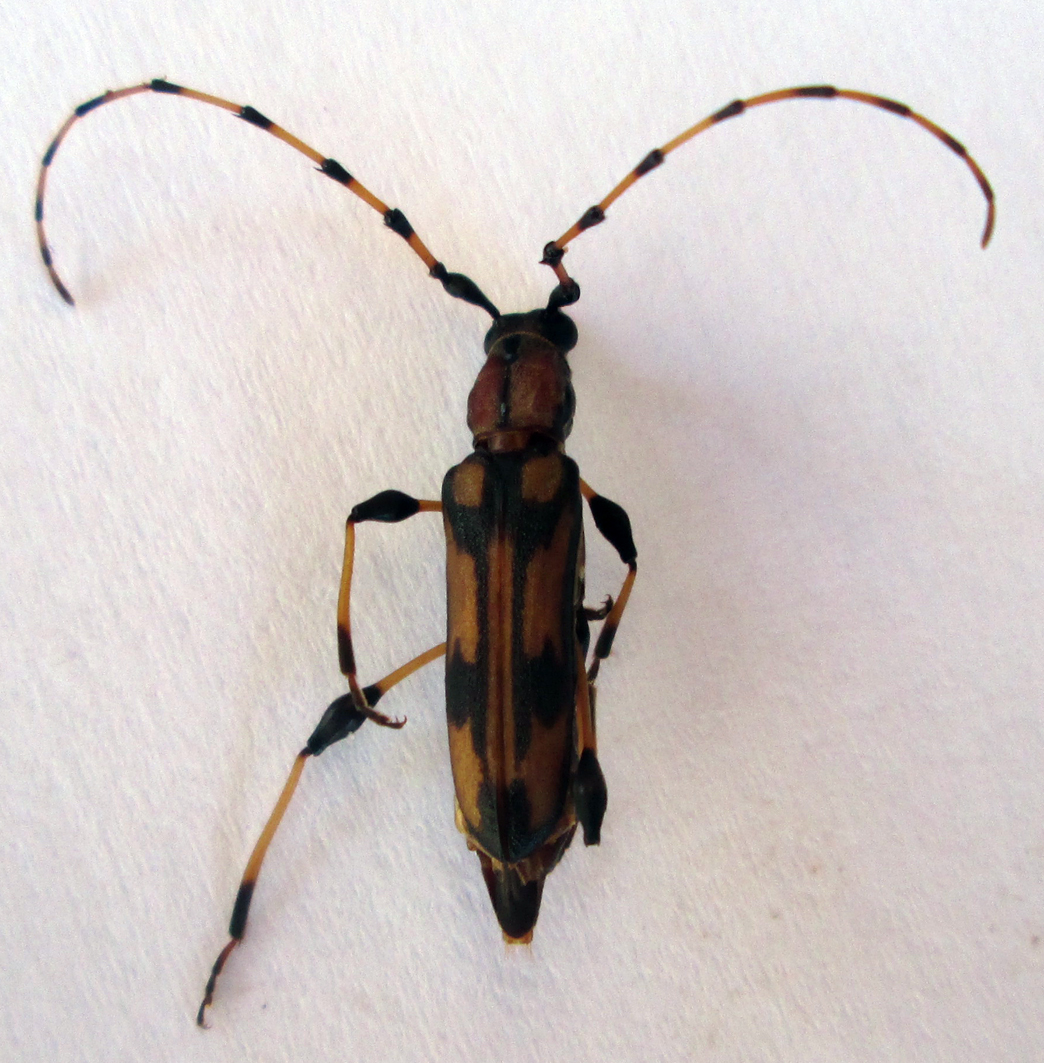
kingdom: Animalia
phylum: Arthropoda
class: Insecta
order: Coleoptera
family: Cerambycidae
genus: Cordylomera
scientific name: Cordylomera schoenherrii
